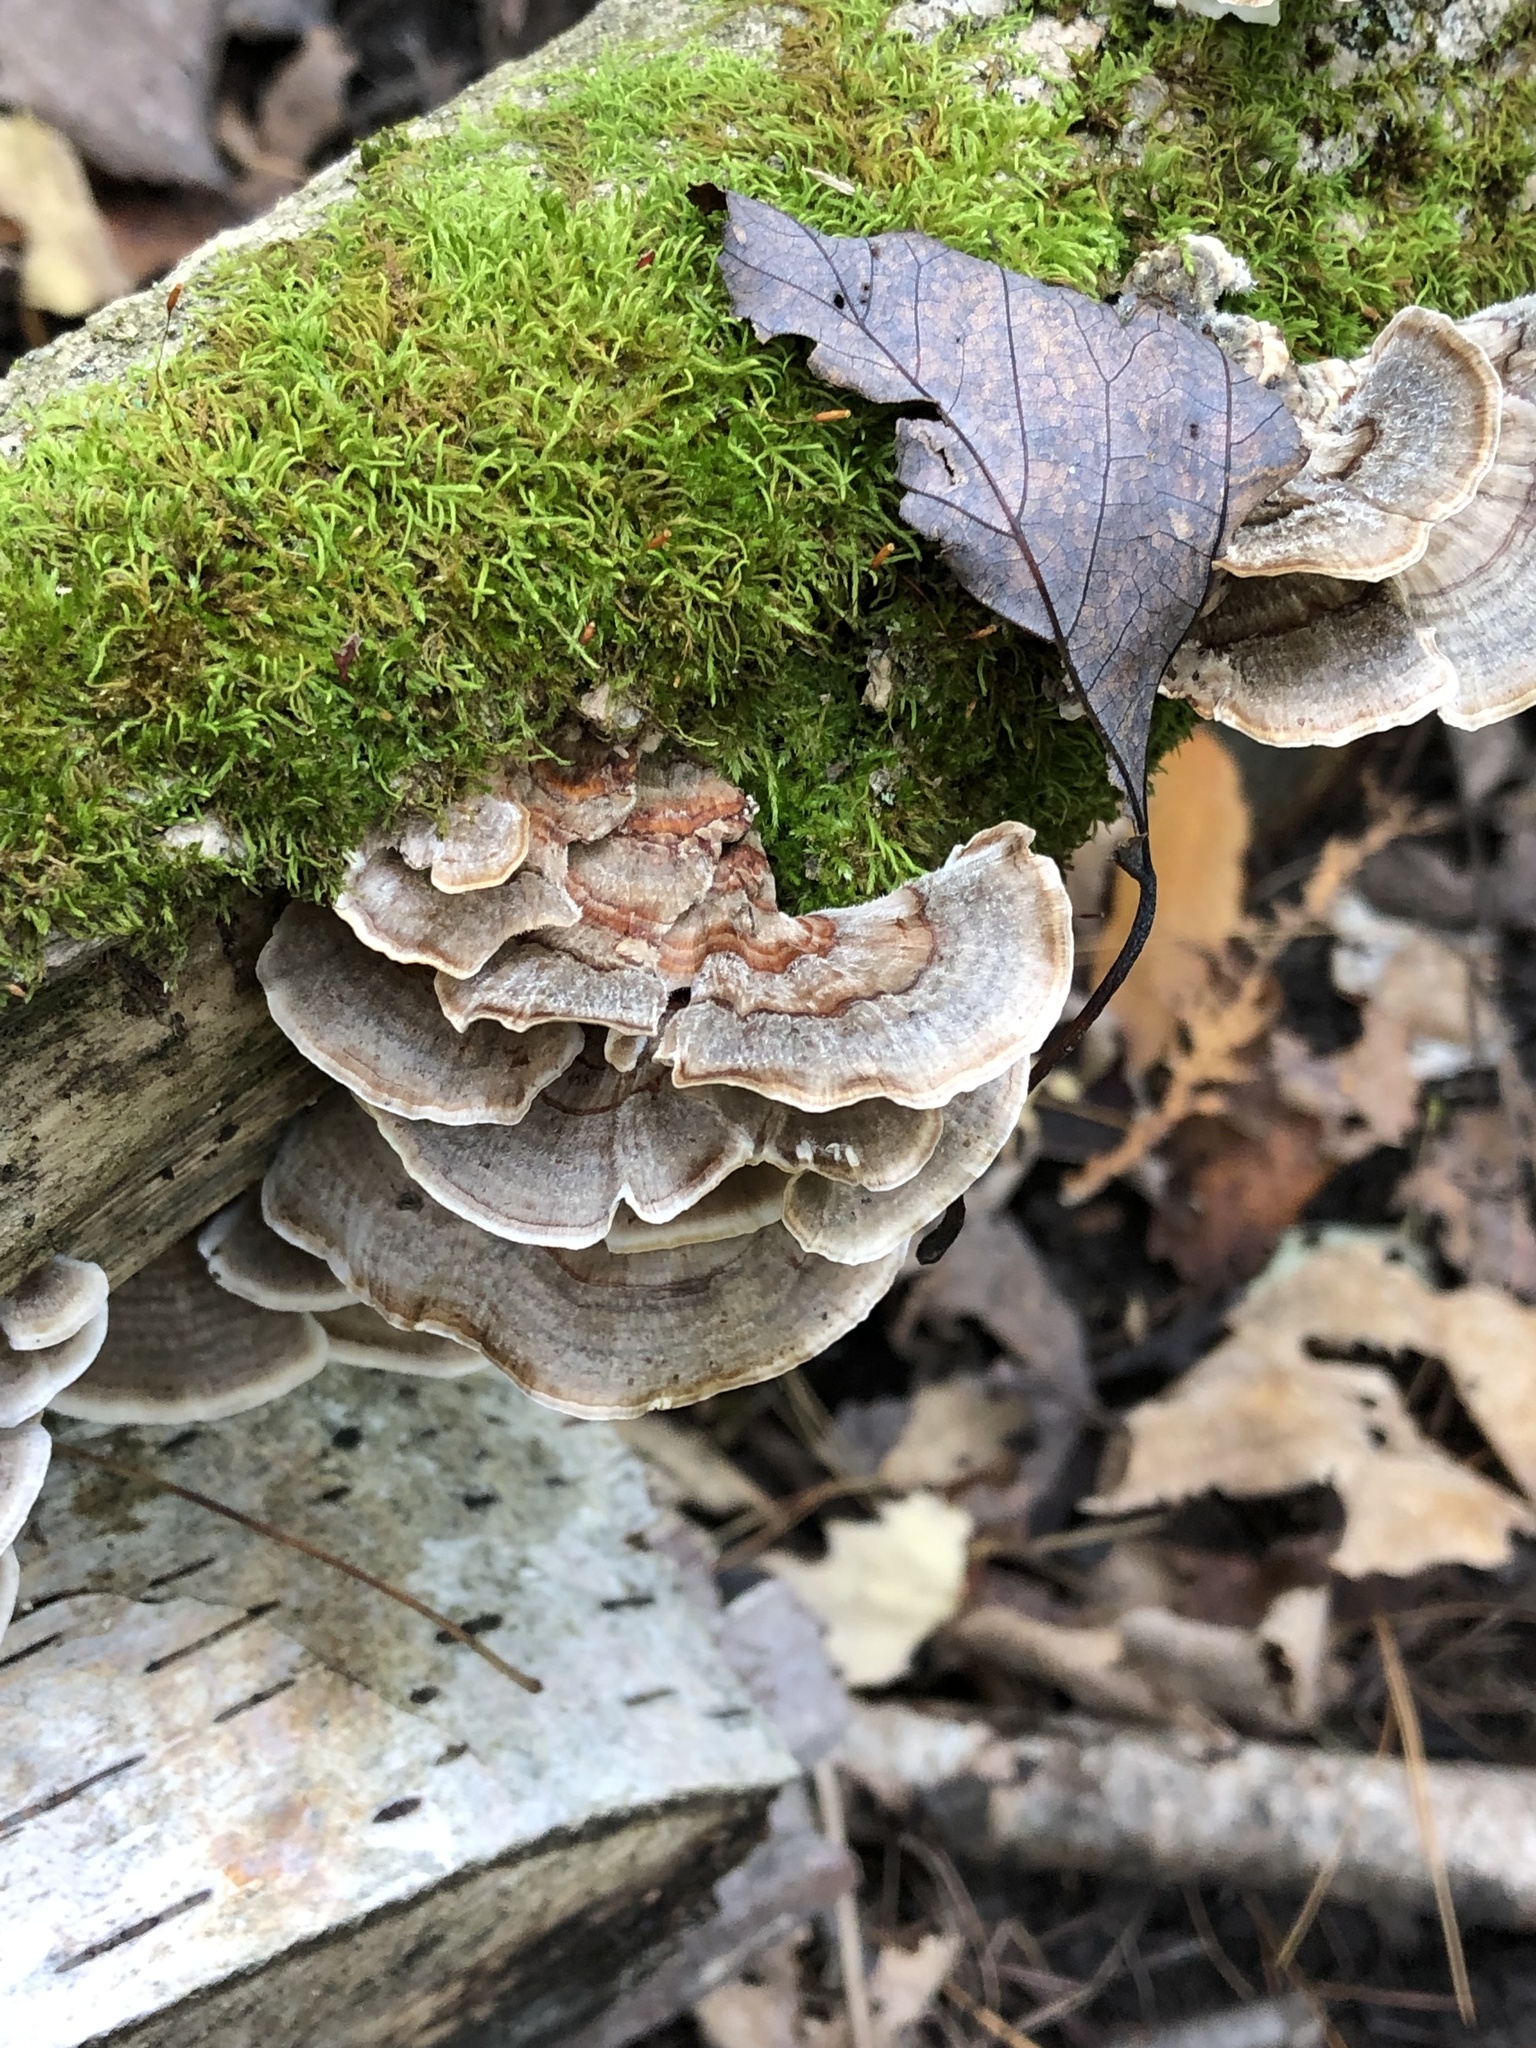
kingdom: Fungi
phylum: Basidiomycota
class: Agaricomycetes
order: Polyporales
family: Polyporaceae
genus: Trametes
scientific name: Trametes versicolor
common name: Turkeytail
